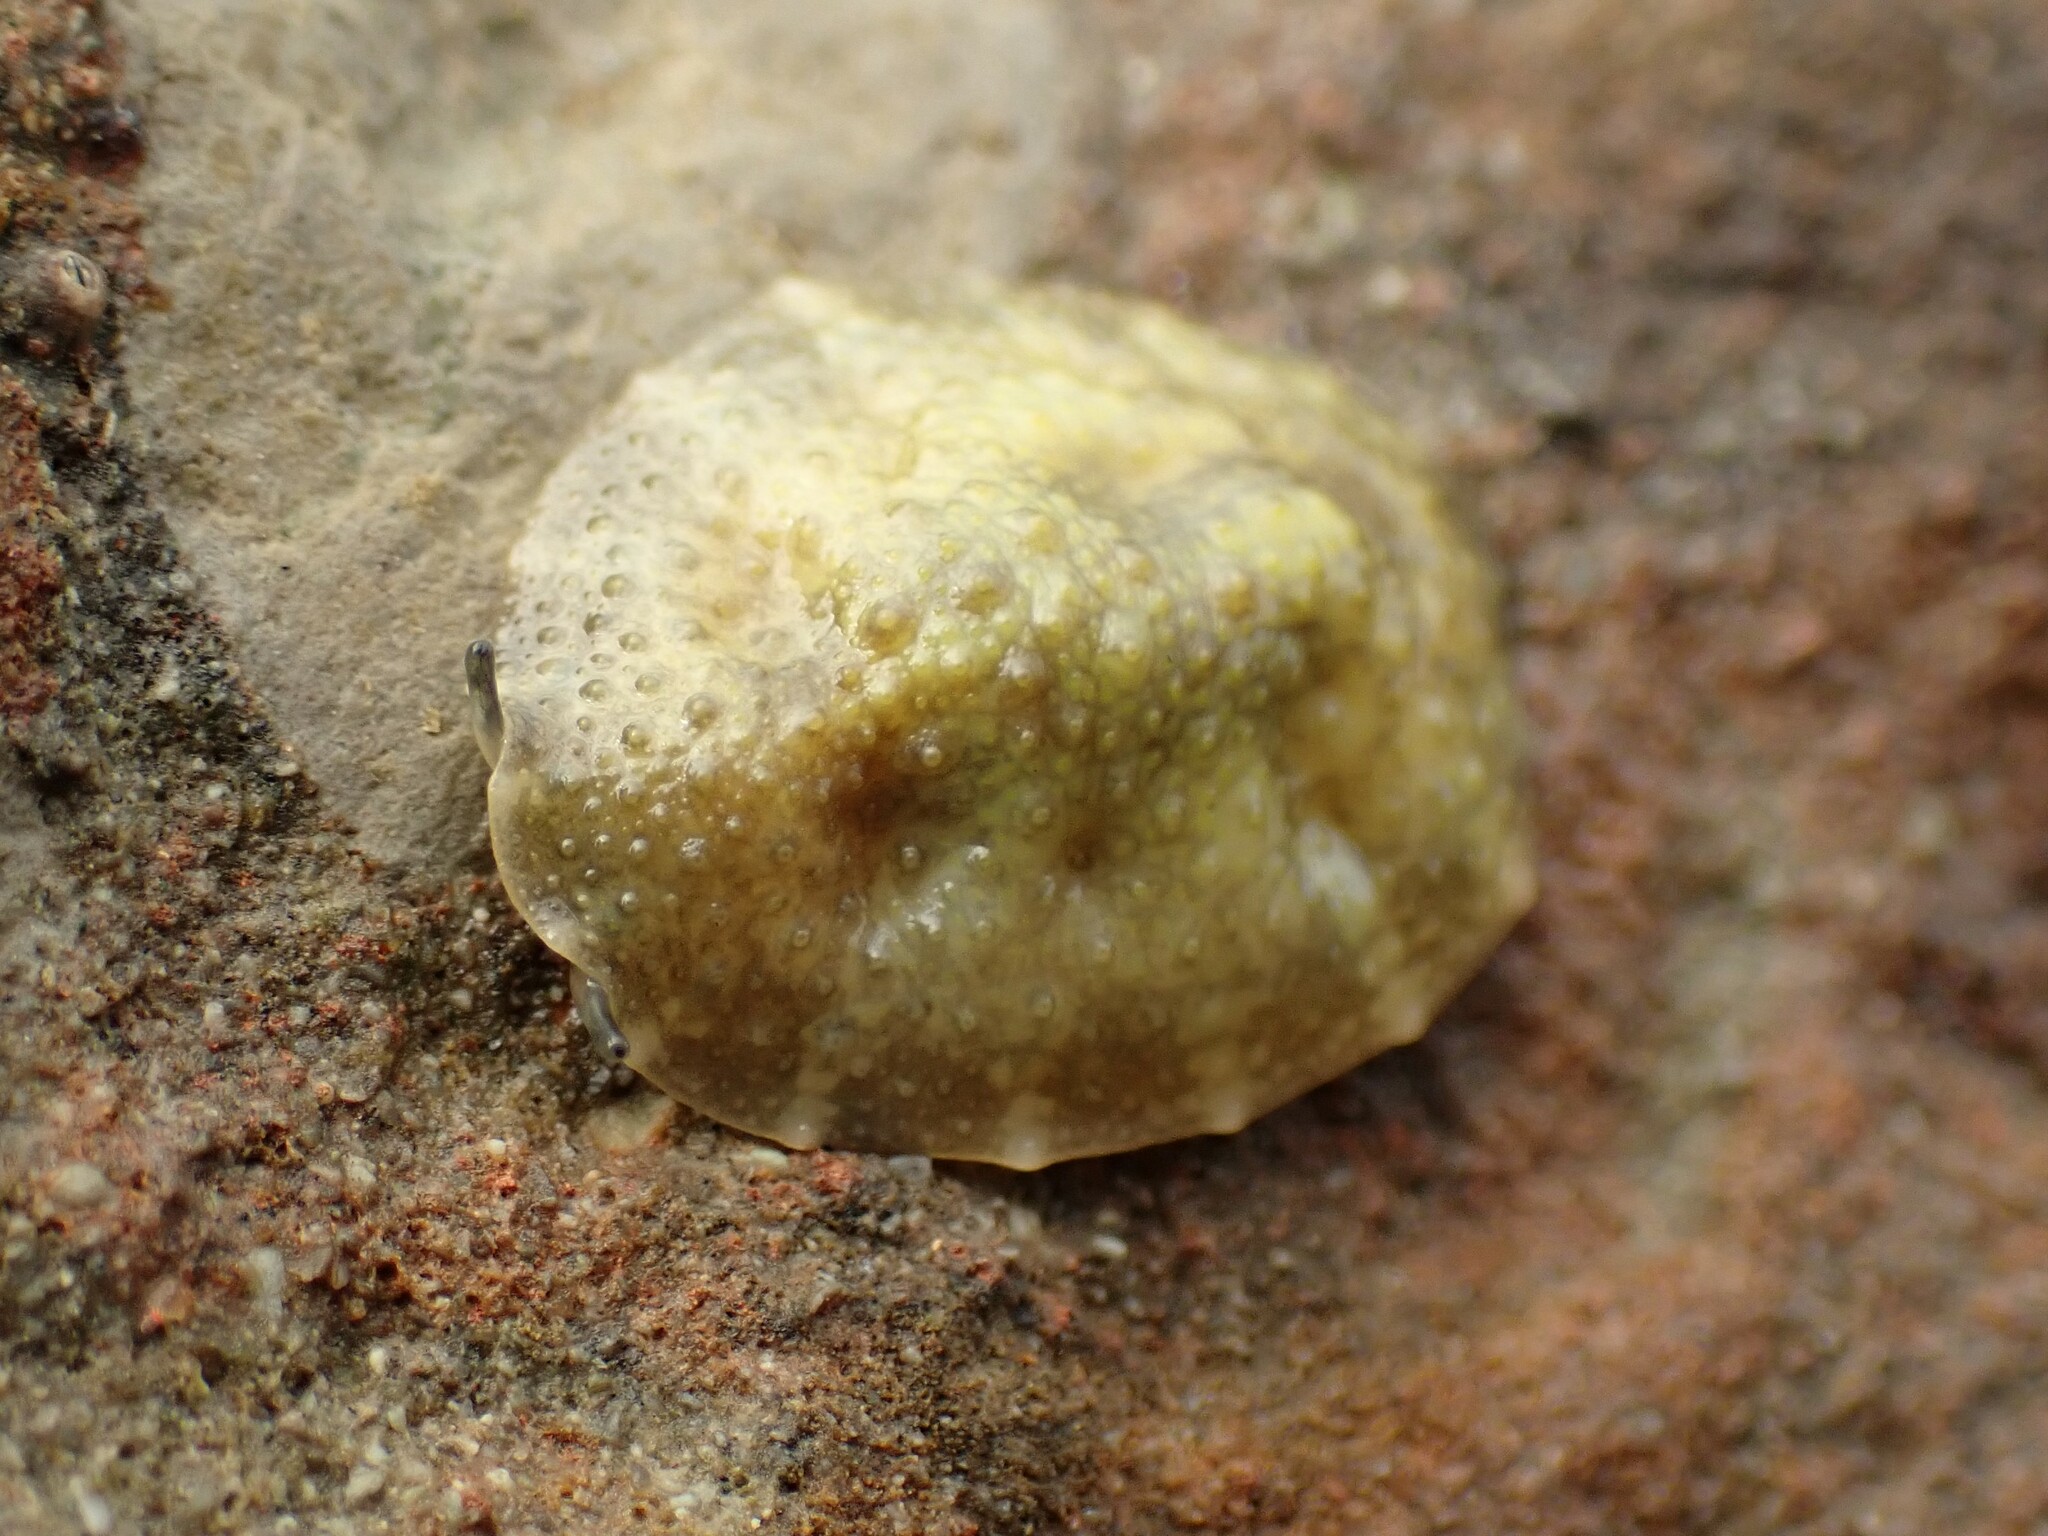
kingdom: Animalia
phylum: Mollusca
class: Gastropoda
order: Systellommatophora
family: Onchidiidae
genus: Onchidella
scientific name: Onchidella nigricans
